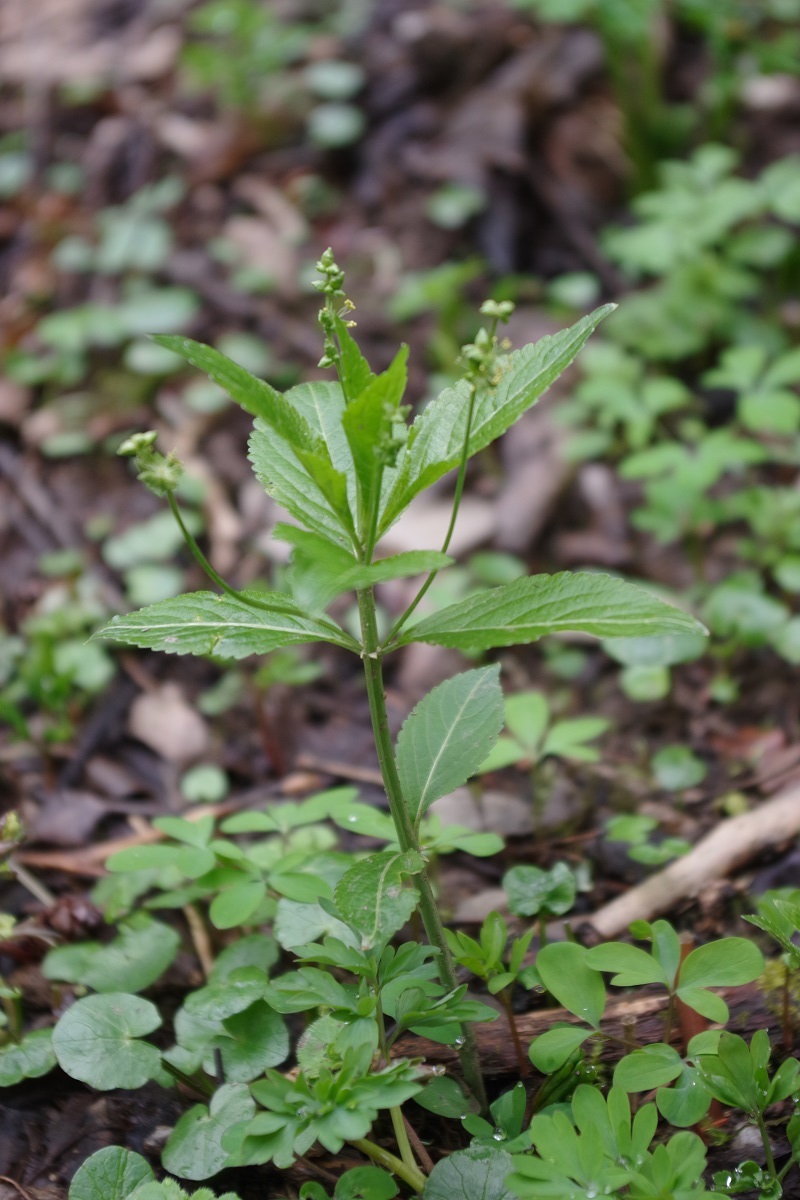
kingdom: Plantae
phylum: Tracheophyta
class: Magnoliopsida
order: Malpighiales
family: Euphorbiaceae
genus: Mercurialis
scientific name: Mercurialis perennis
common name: Dog mercury
